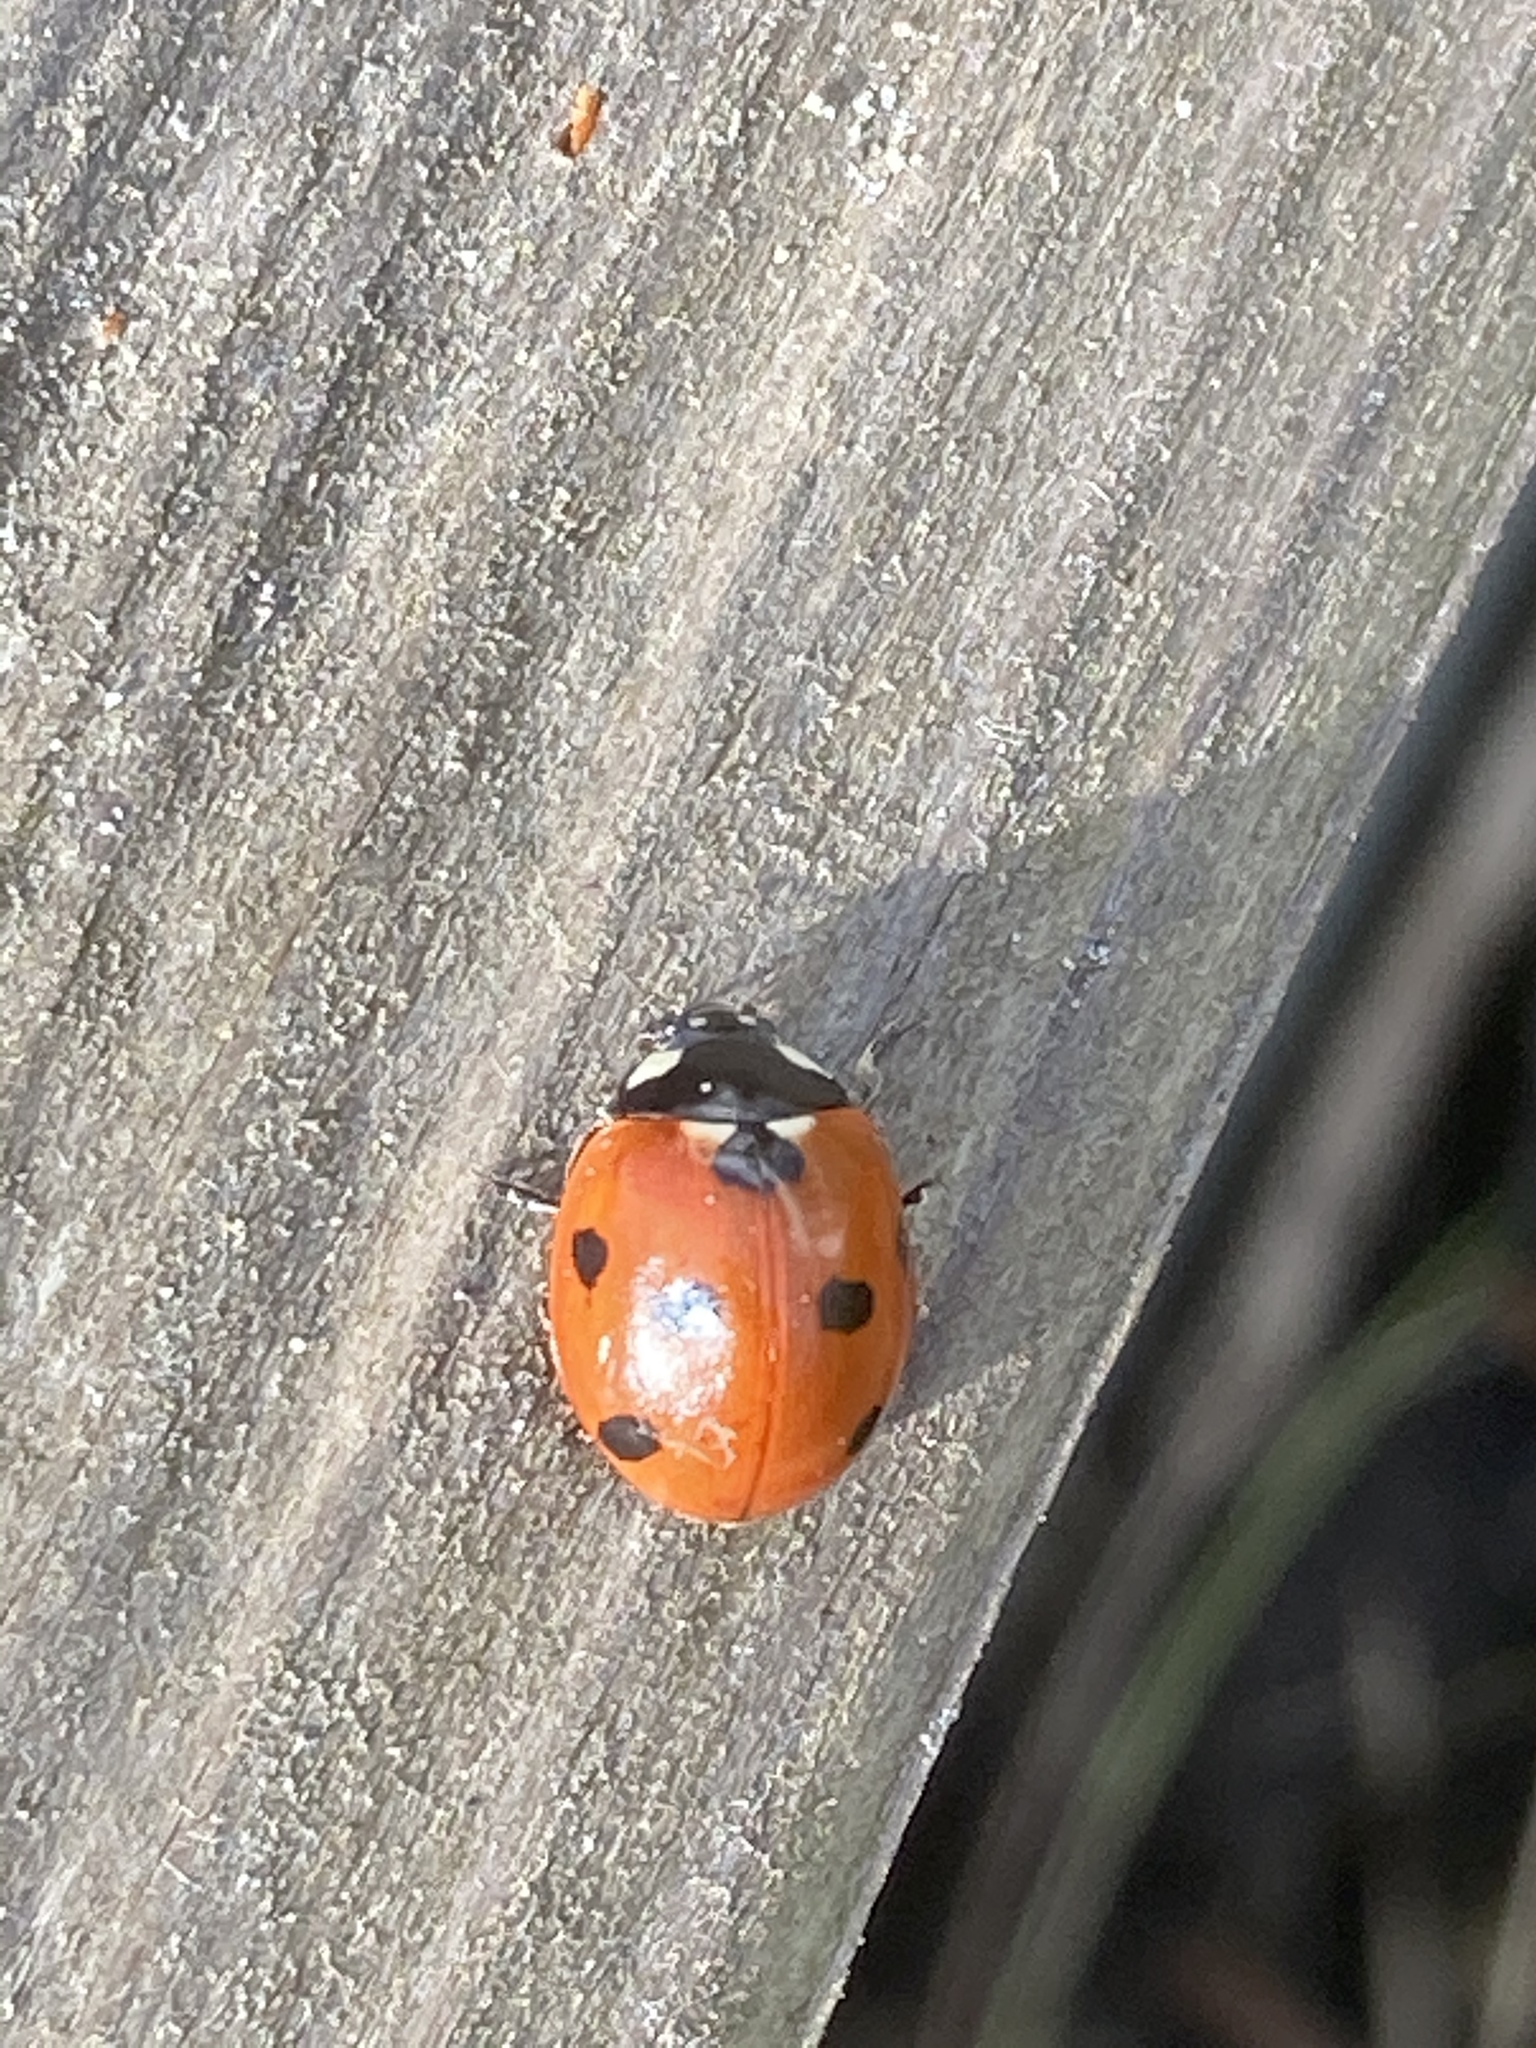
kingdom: Animalia
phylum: Arthropoda
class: Insecta
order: Coleoptera
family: Coccinellidae
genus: Coccinella
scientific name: Coccinella septempunctata
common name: Sevenspotted lady beetle
